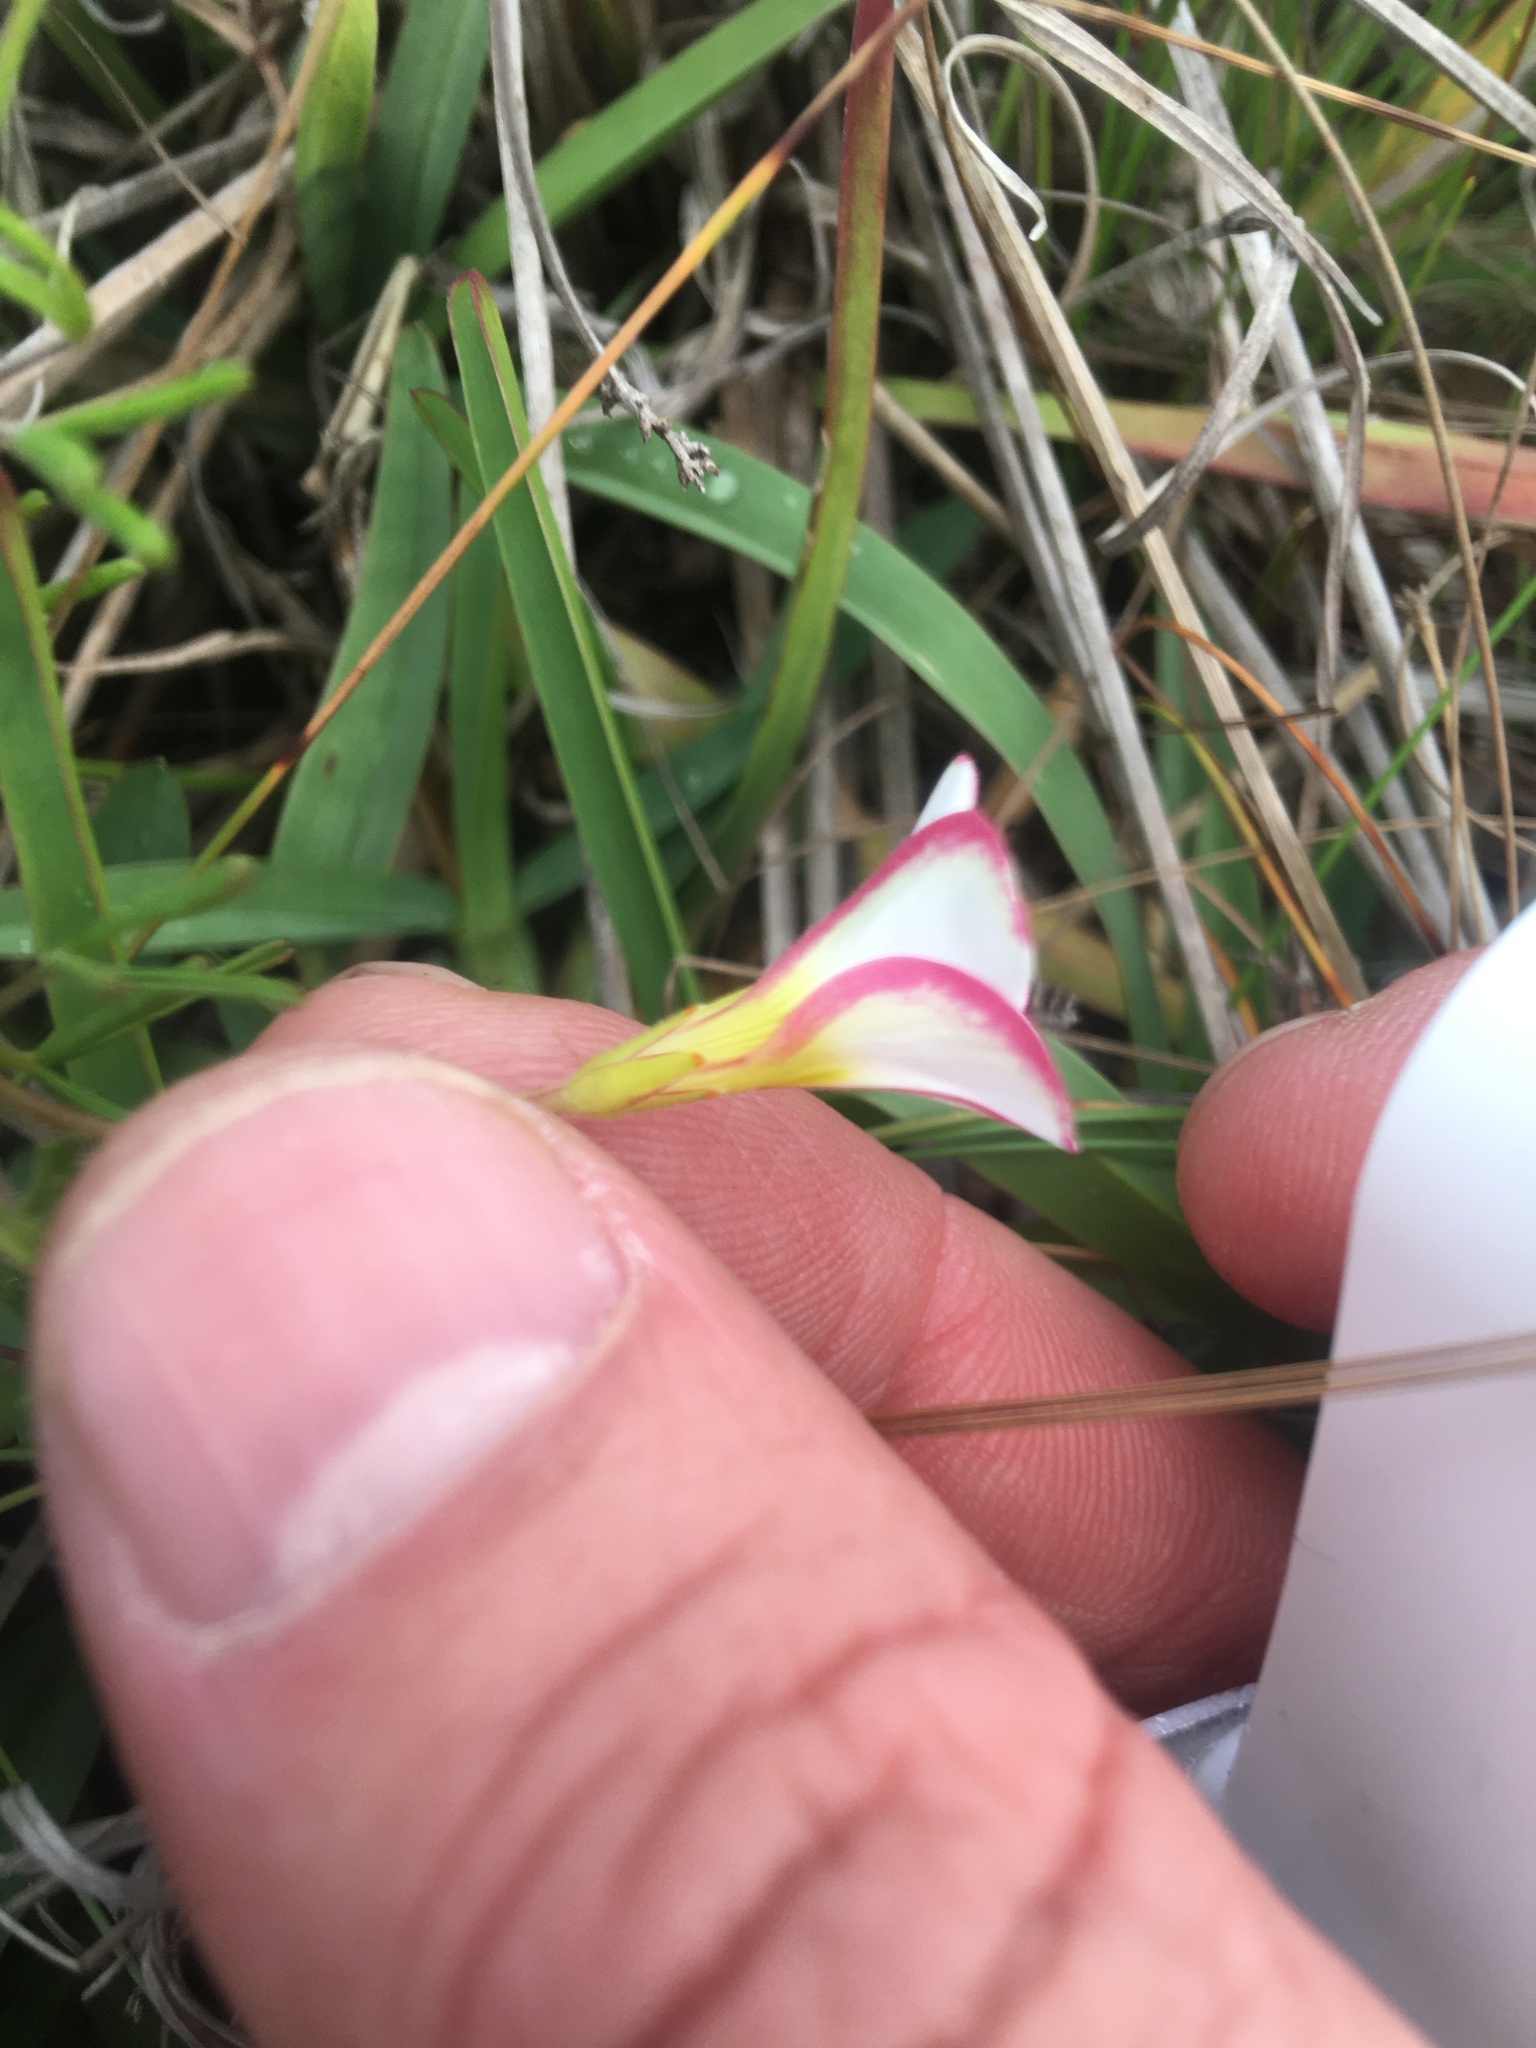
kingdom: Plantae
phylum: Tracheophyta
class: Magnoliopsida
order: Oxalidales
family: Oxalidaceae
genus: Oxalis
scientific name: Oxalis versicolor
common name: Peppermint rock oxalis
